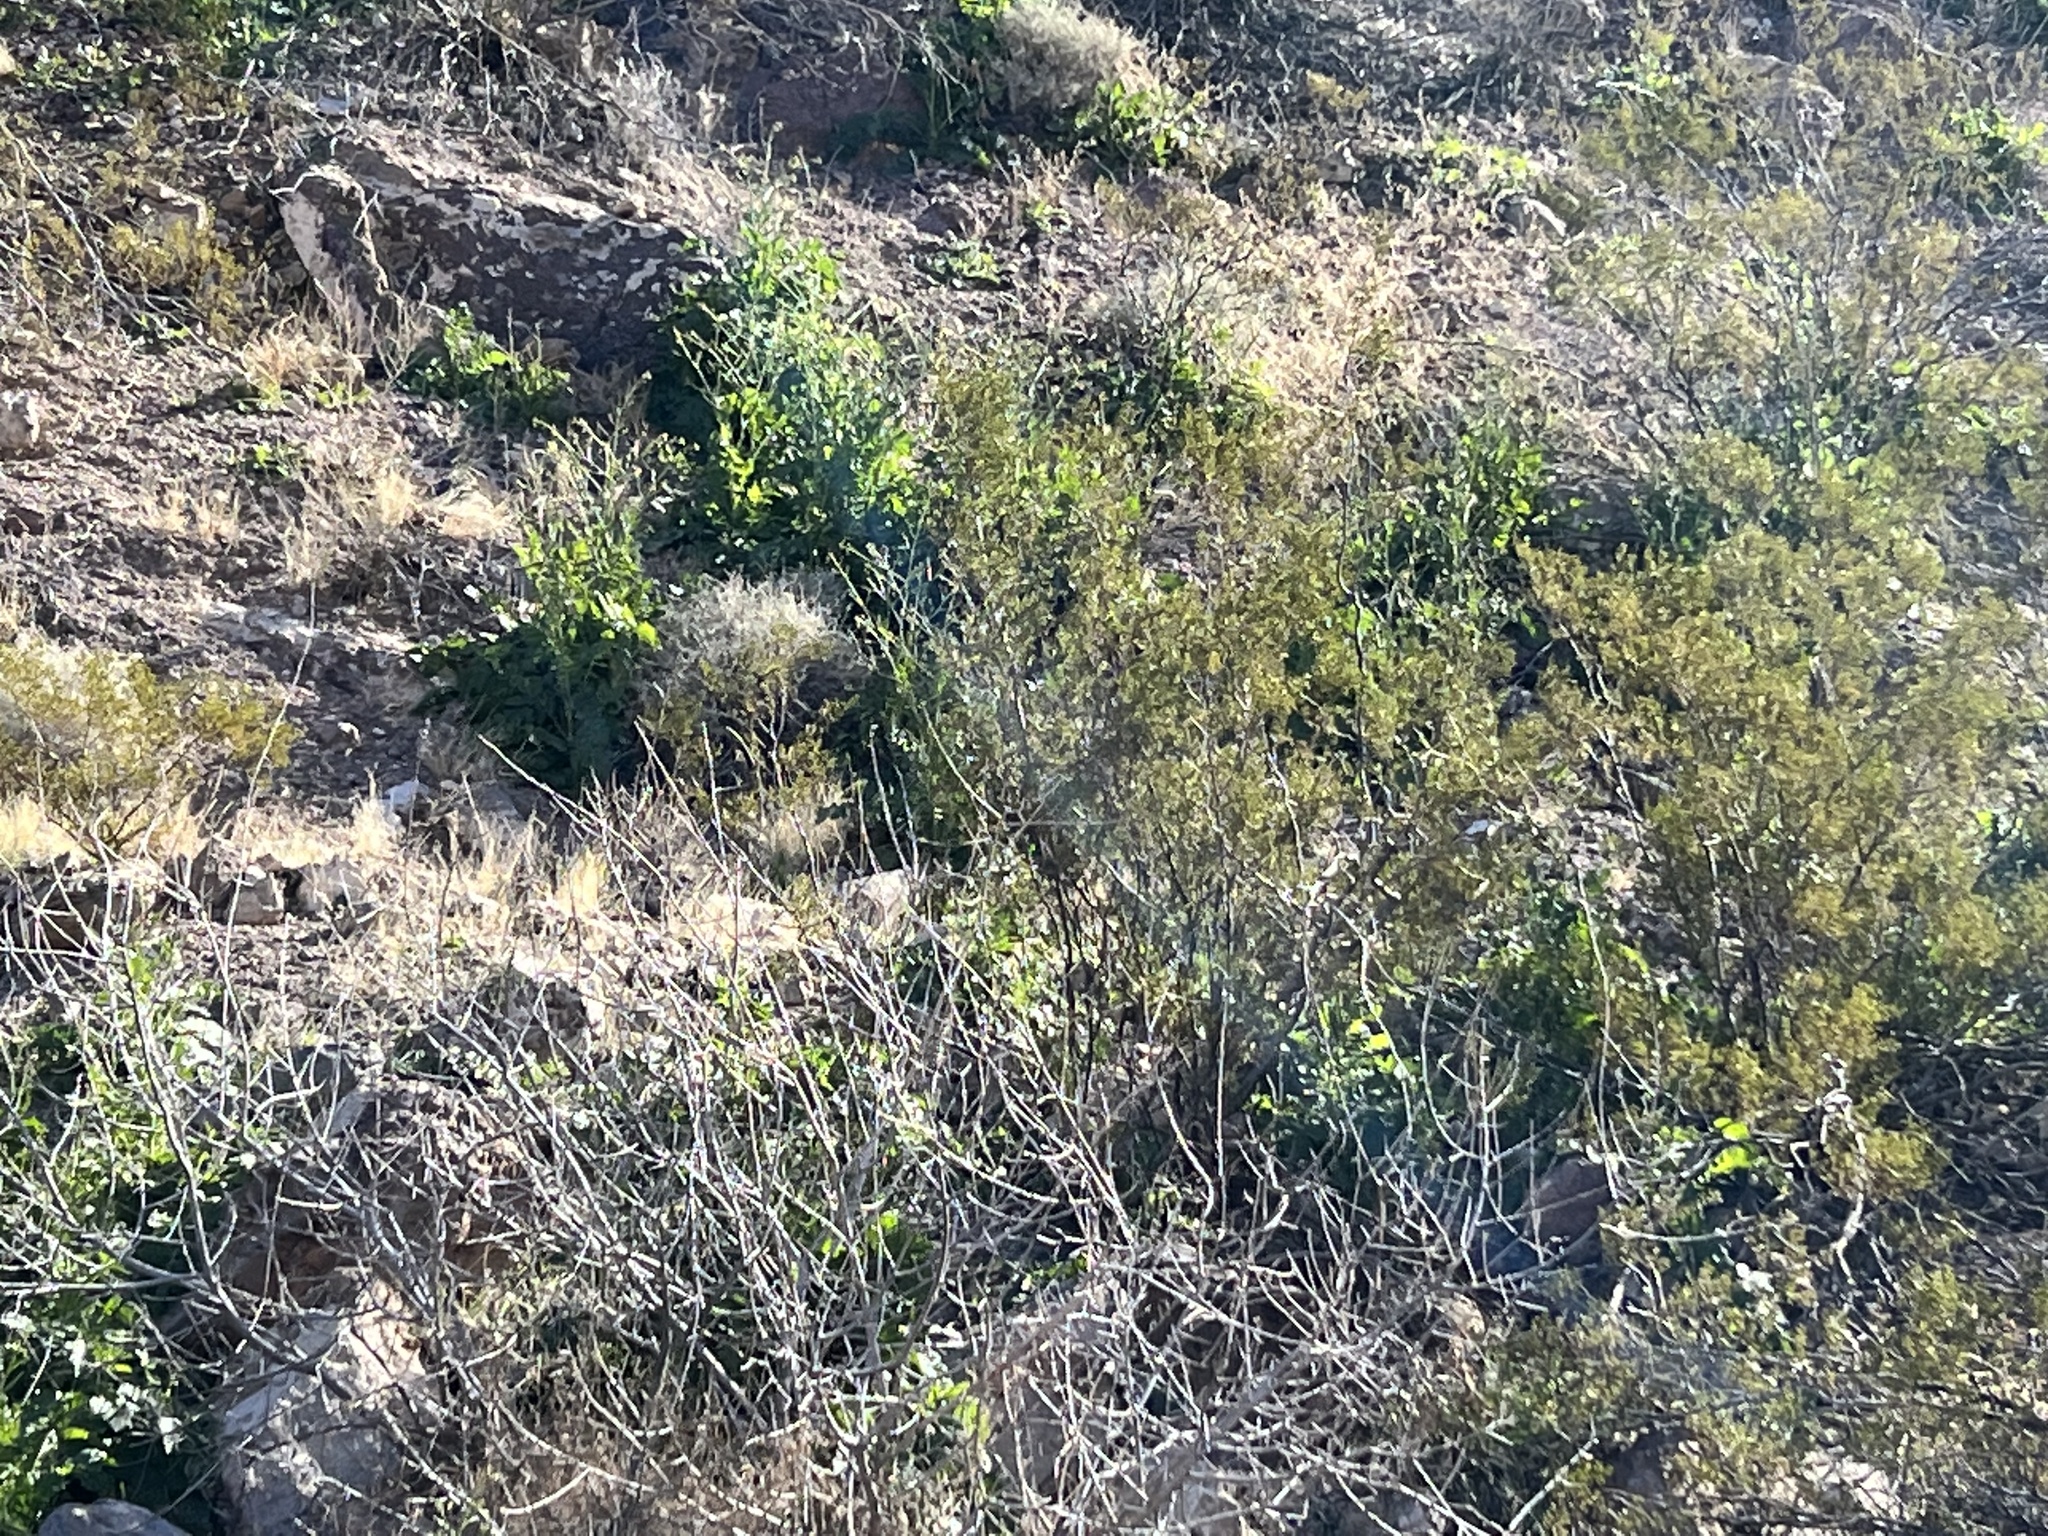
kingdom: Plantae
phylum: Tracheophyta
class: Magnoliopsida
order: Zygophyllales
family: Zygophyllaceae
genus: Larrea
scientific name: Larrea tridentata
